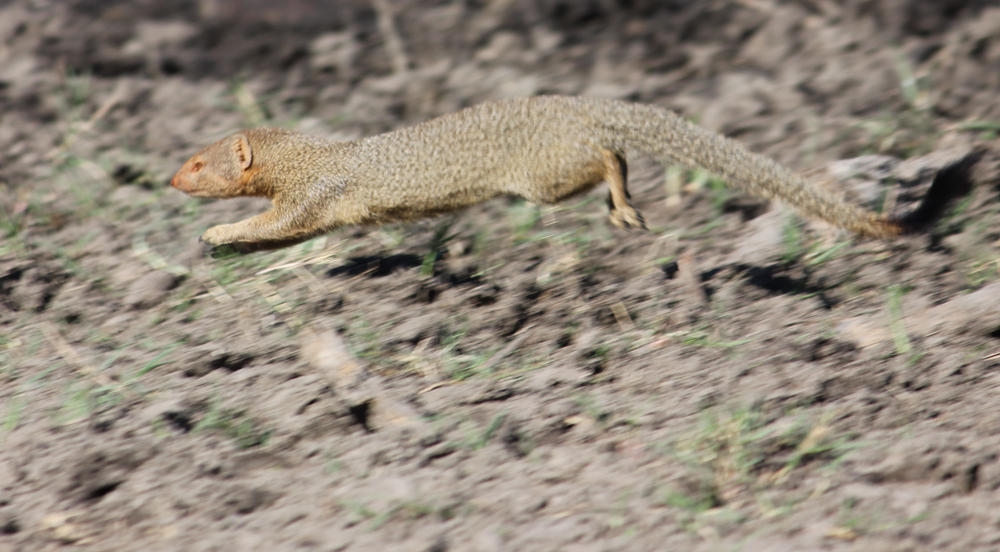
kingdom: Animalia
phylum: Chordata
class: Mammalia
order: Carnivora
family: Herpestidae
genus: Galerella
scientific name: Galerella sanguinea
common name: Slender mongoose
